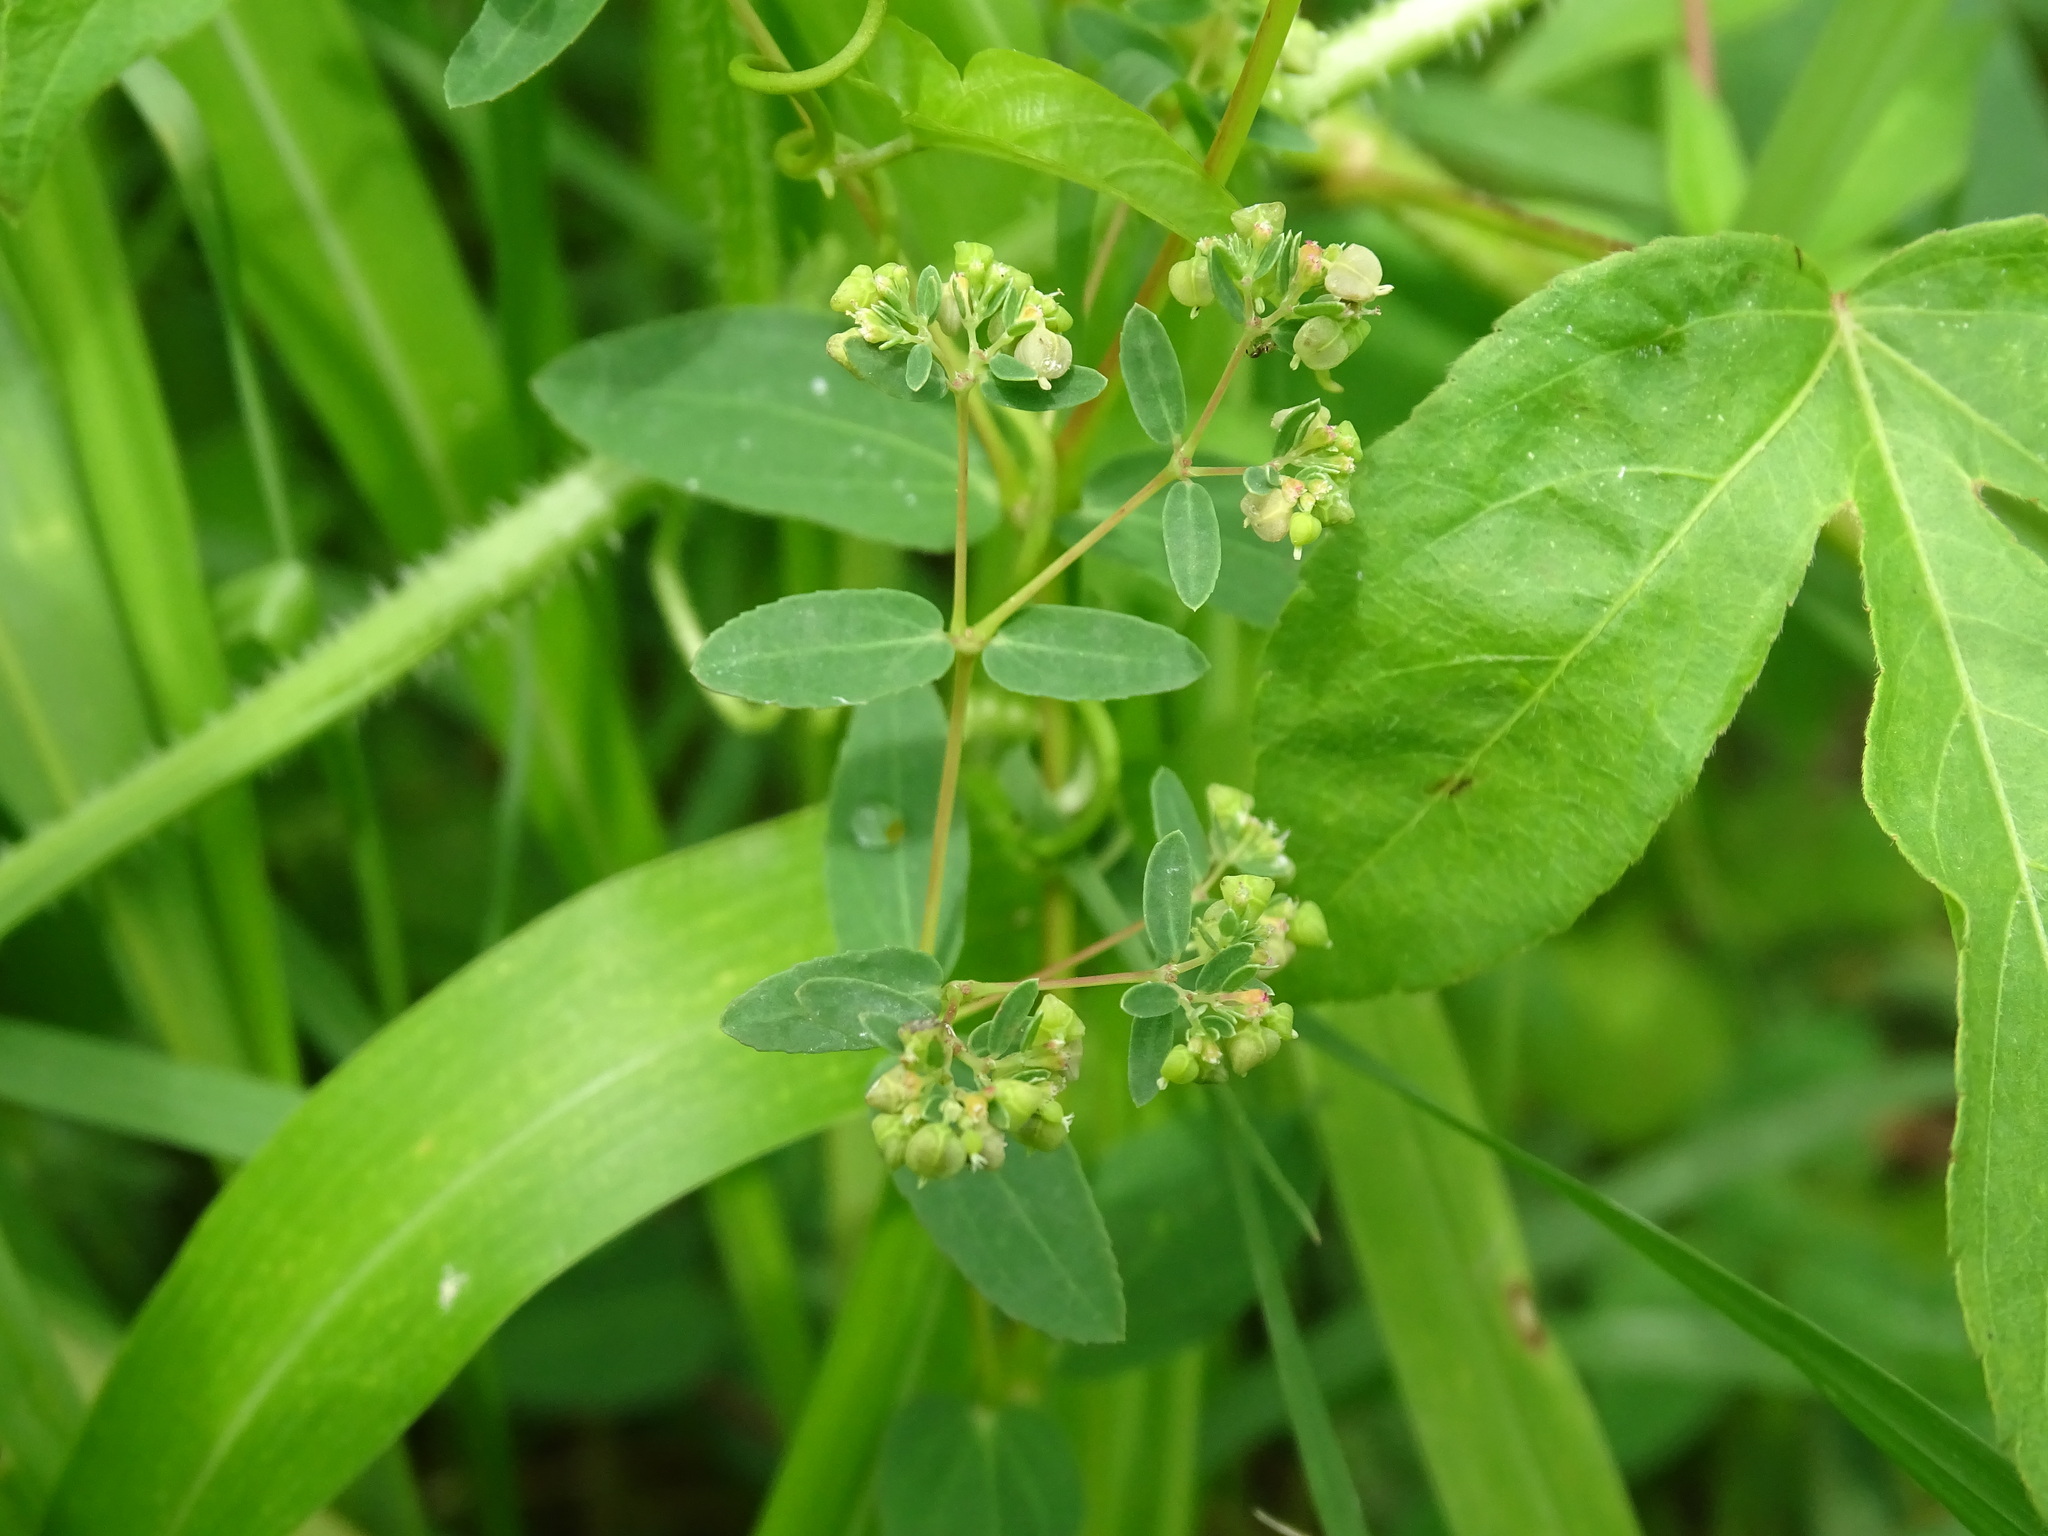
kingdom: Plantae
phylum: Tracheophyta
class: Magnoliopsida
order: Malpighiales
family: Euphorbiaceae
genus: Euphorbia
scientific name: Euphorbia hyssopifolia
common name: Hyssopleaf sandmat
